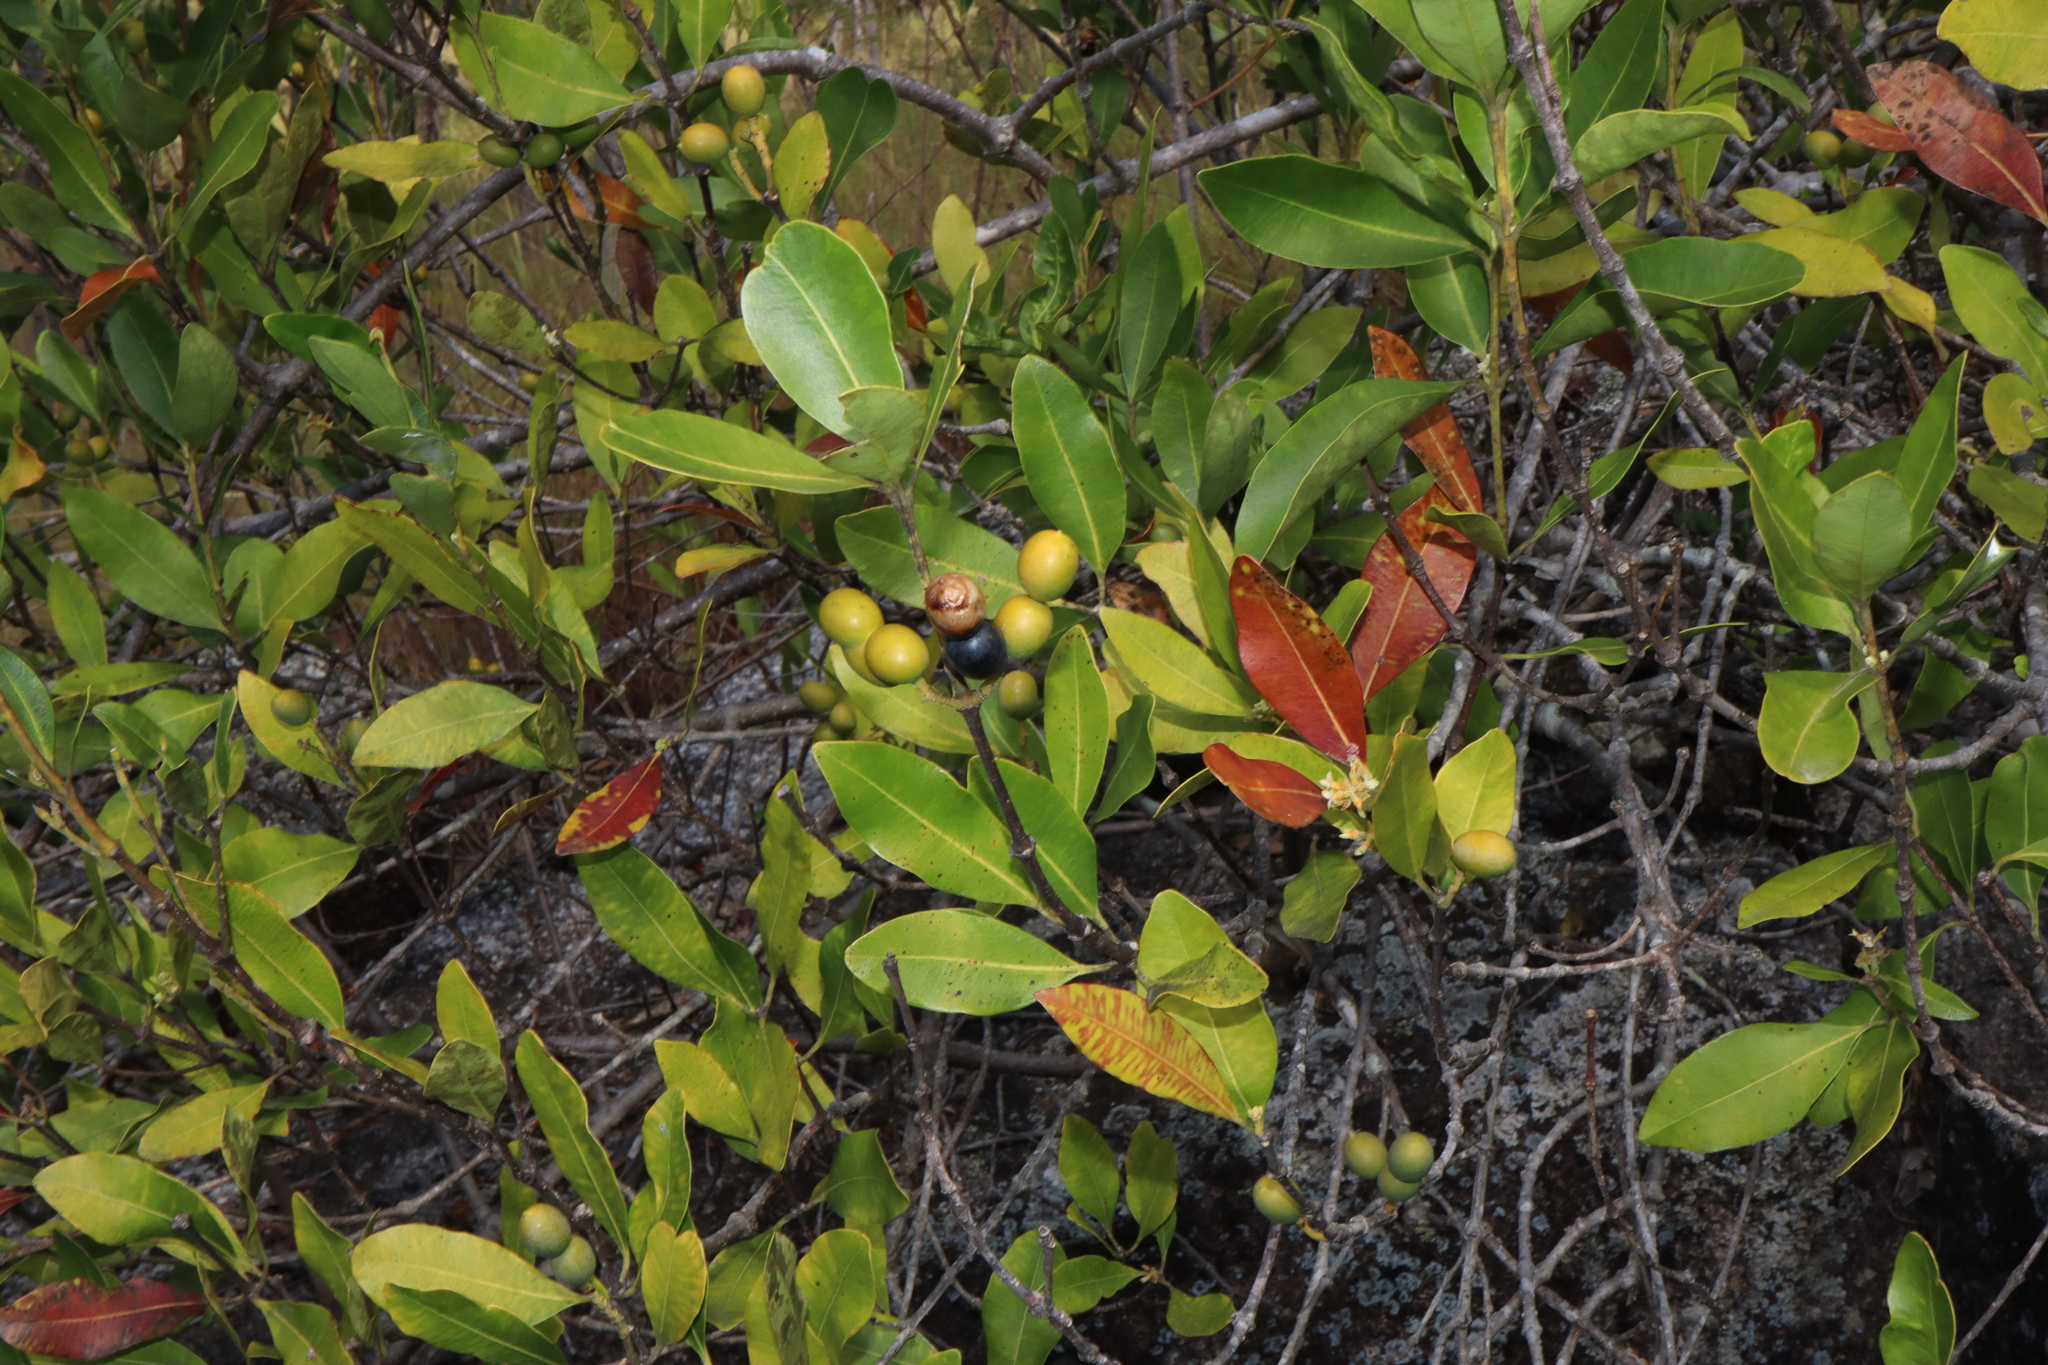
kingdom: Plantae
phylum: Tracheophyta
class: Magnoliopsida
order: Gentianales
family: Apocynaceae
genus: Alyxia
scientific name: Alyxia spicata
